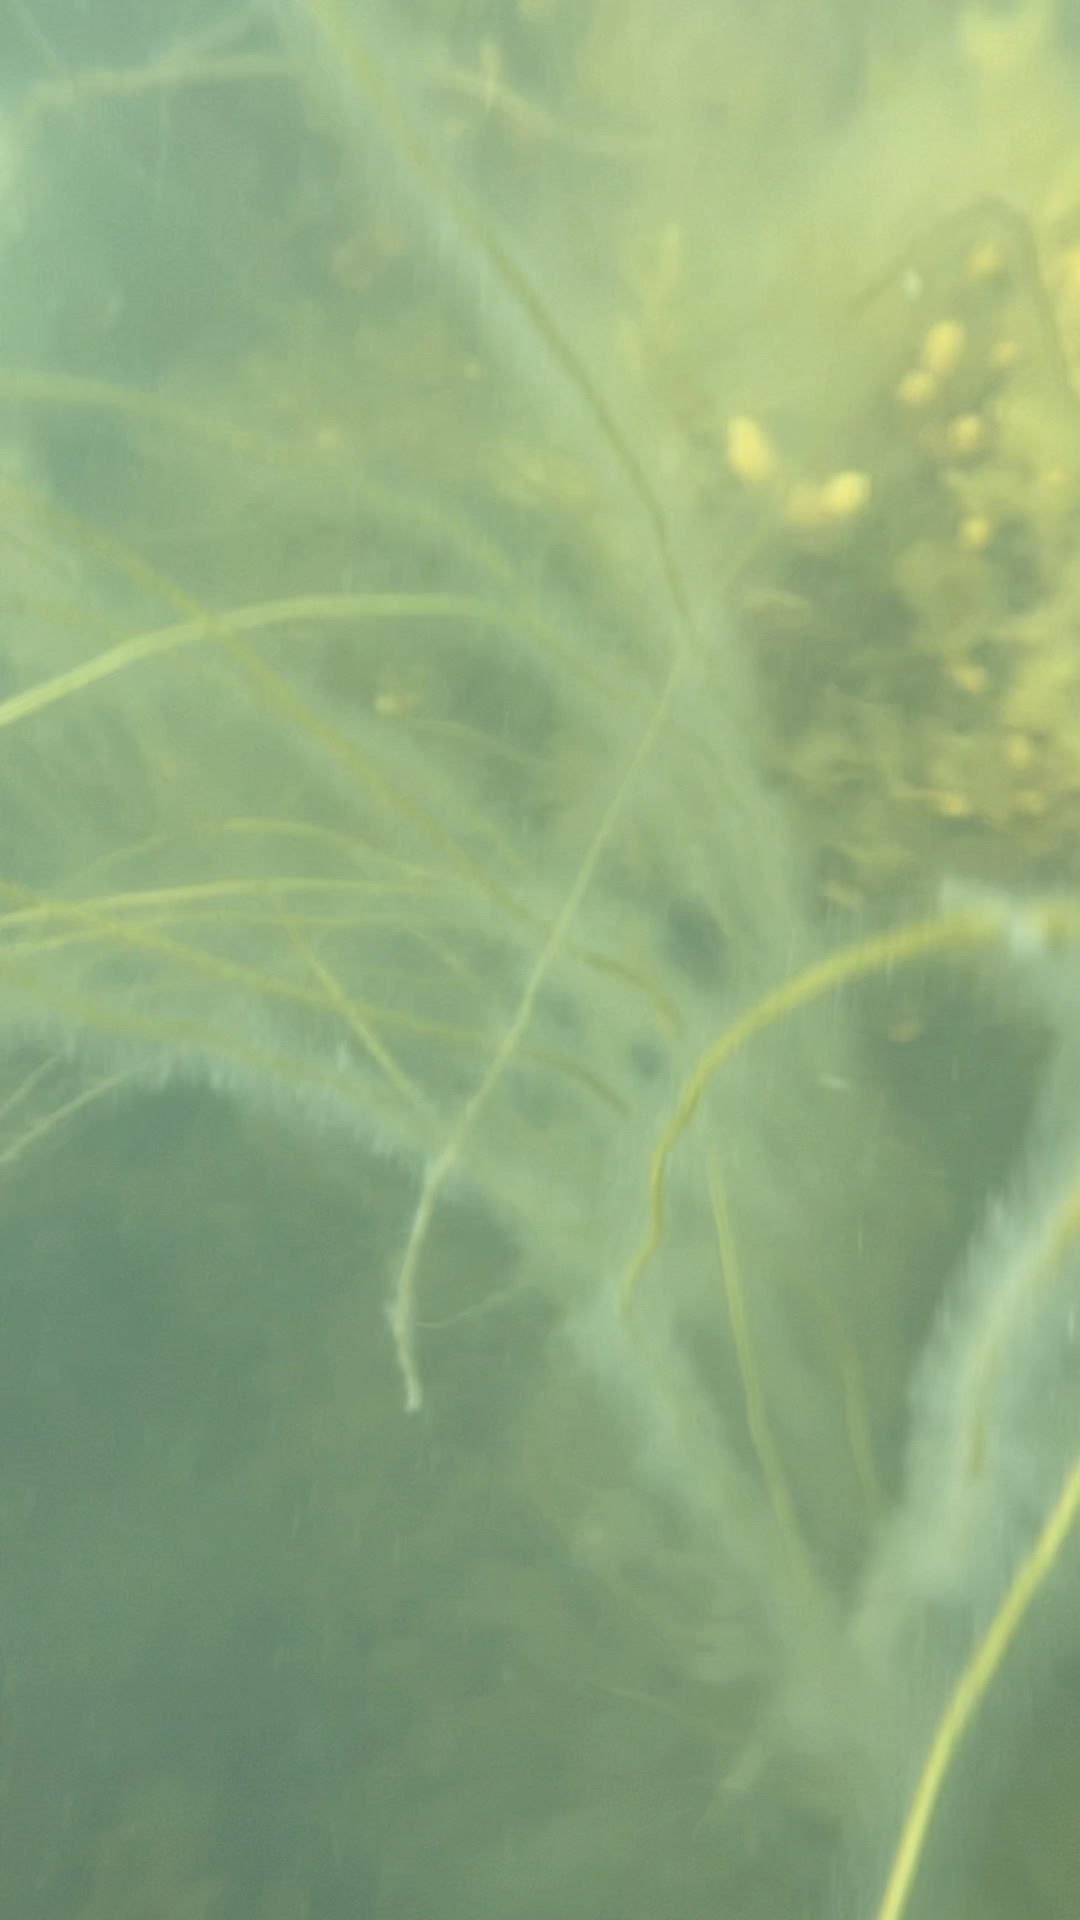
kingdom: Chromista
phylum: Ochrophyta
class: Phaeophyceae
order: Laminariales
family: Chordaceae
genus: Chorda
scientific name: Chorda filum
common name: Mermaid's tresses
